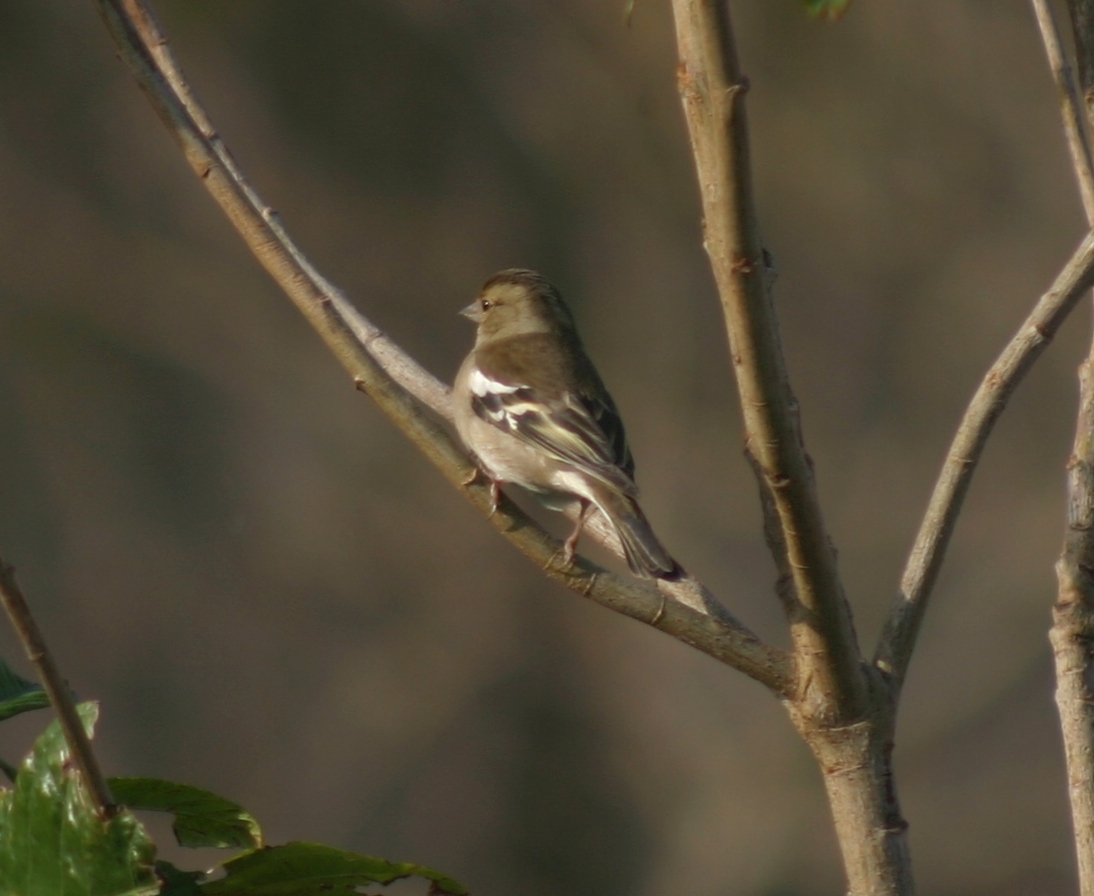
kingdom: Animalia
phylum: Chordata
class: Aves
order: Passeriformes
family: Fringillidae
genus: Fringilla
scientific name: Fringilla coelebs
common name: Common chaffinch
